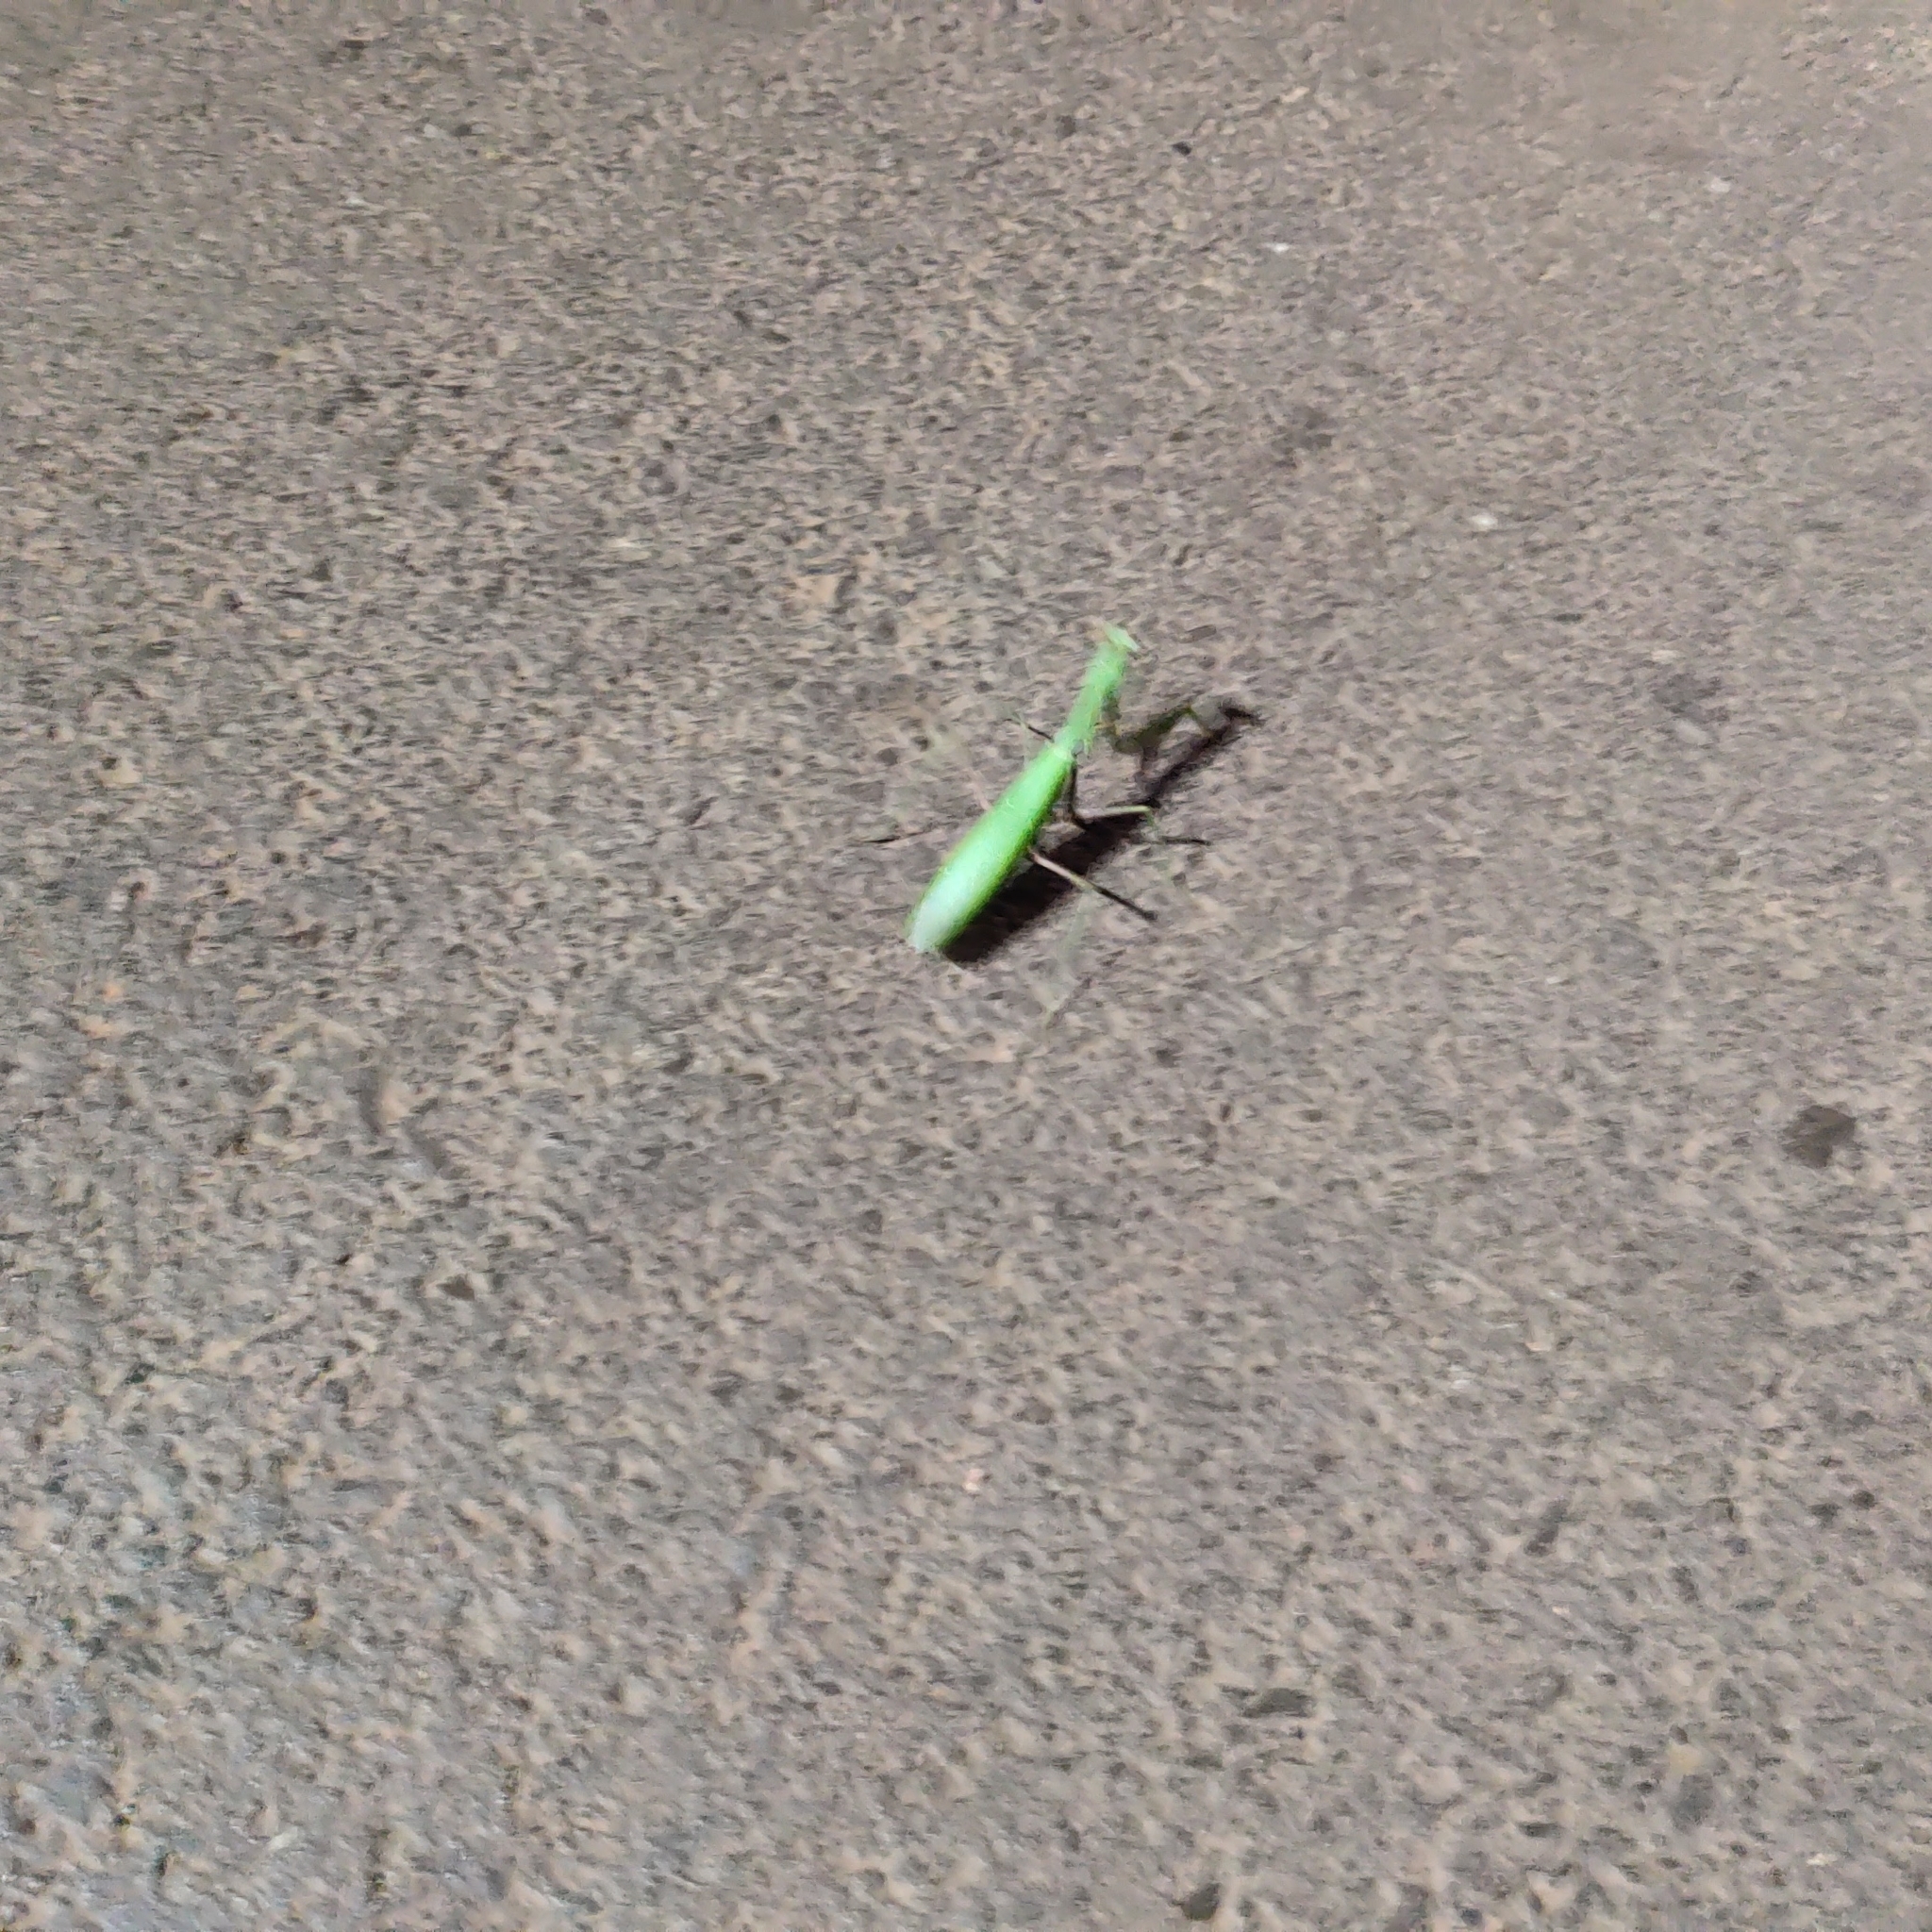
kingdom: Animalia
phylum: Arthropoda
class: Insecta
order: Mantodea
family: Mantidae
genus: Hierodula
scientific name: Hierodula membranacea
